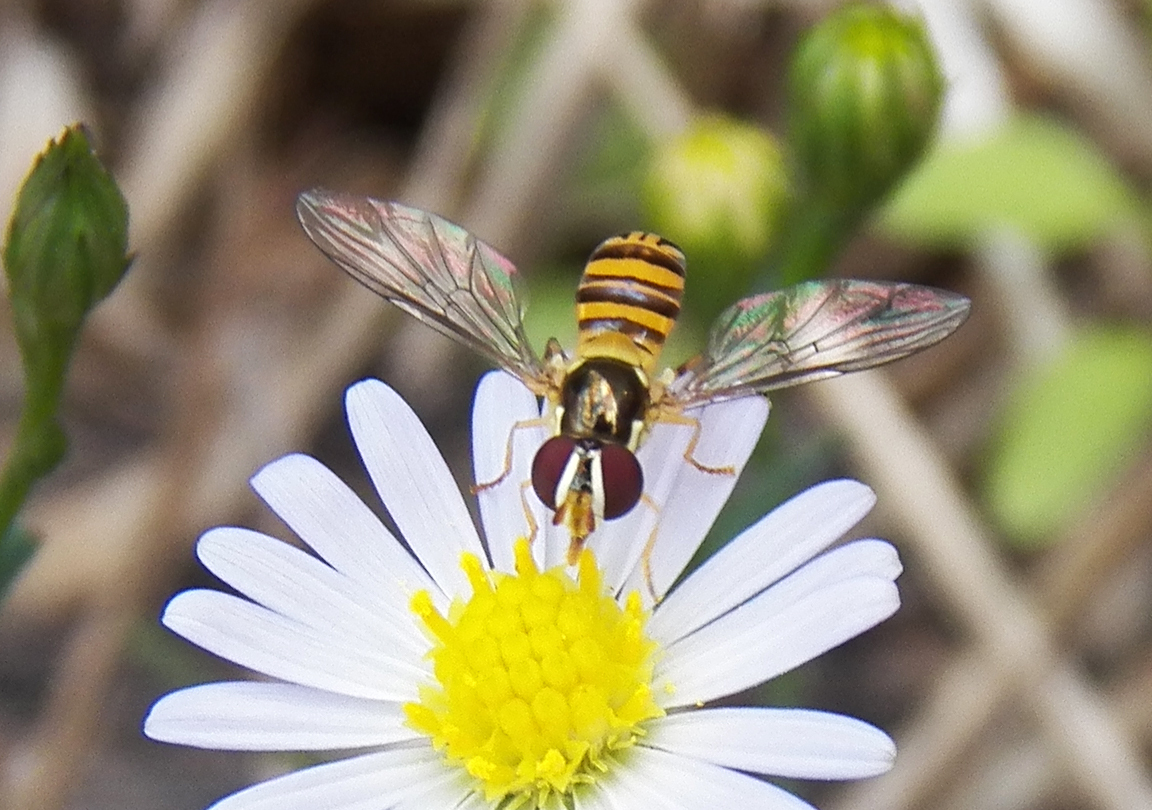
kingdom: Animalia
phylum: Arthropoda
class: Insecta
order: Diptera
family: Syrphidae
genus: Allograpta
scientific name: Allograpta obliqua
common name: Common oblique syrphid
